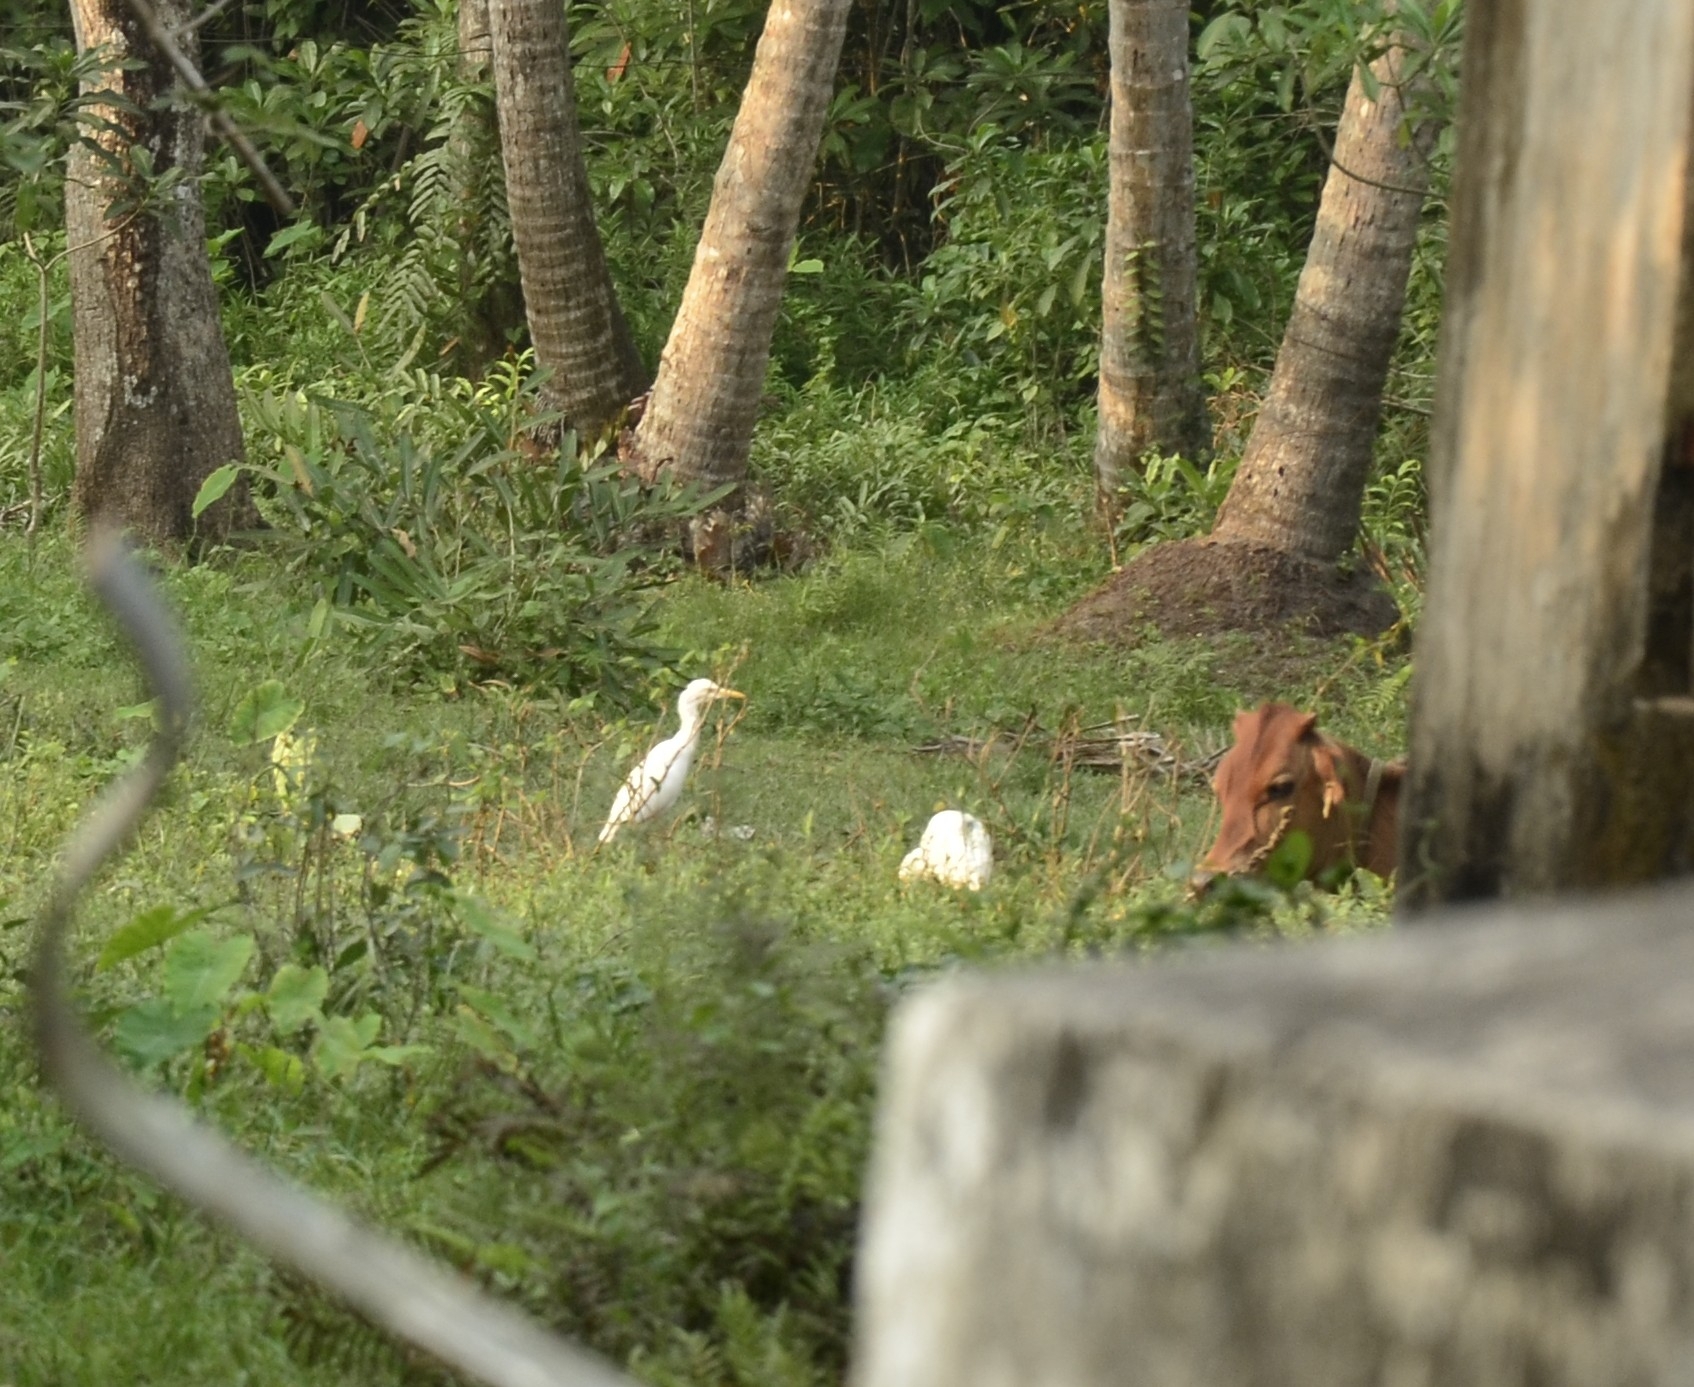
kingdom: Animalia
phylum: Chordata
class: Aves
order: Pelecaniformes
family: Ardeidae
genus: Bubulcus
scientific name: Bubulcus coromandus
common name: Eastern cattle egret
